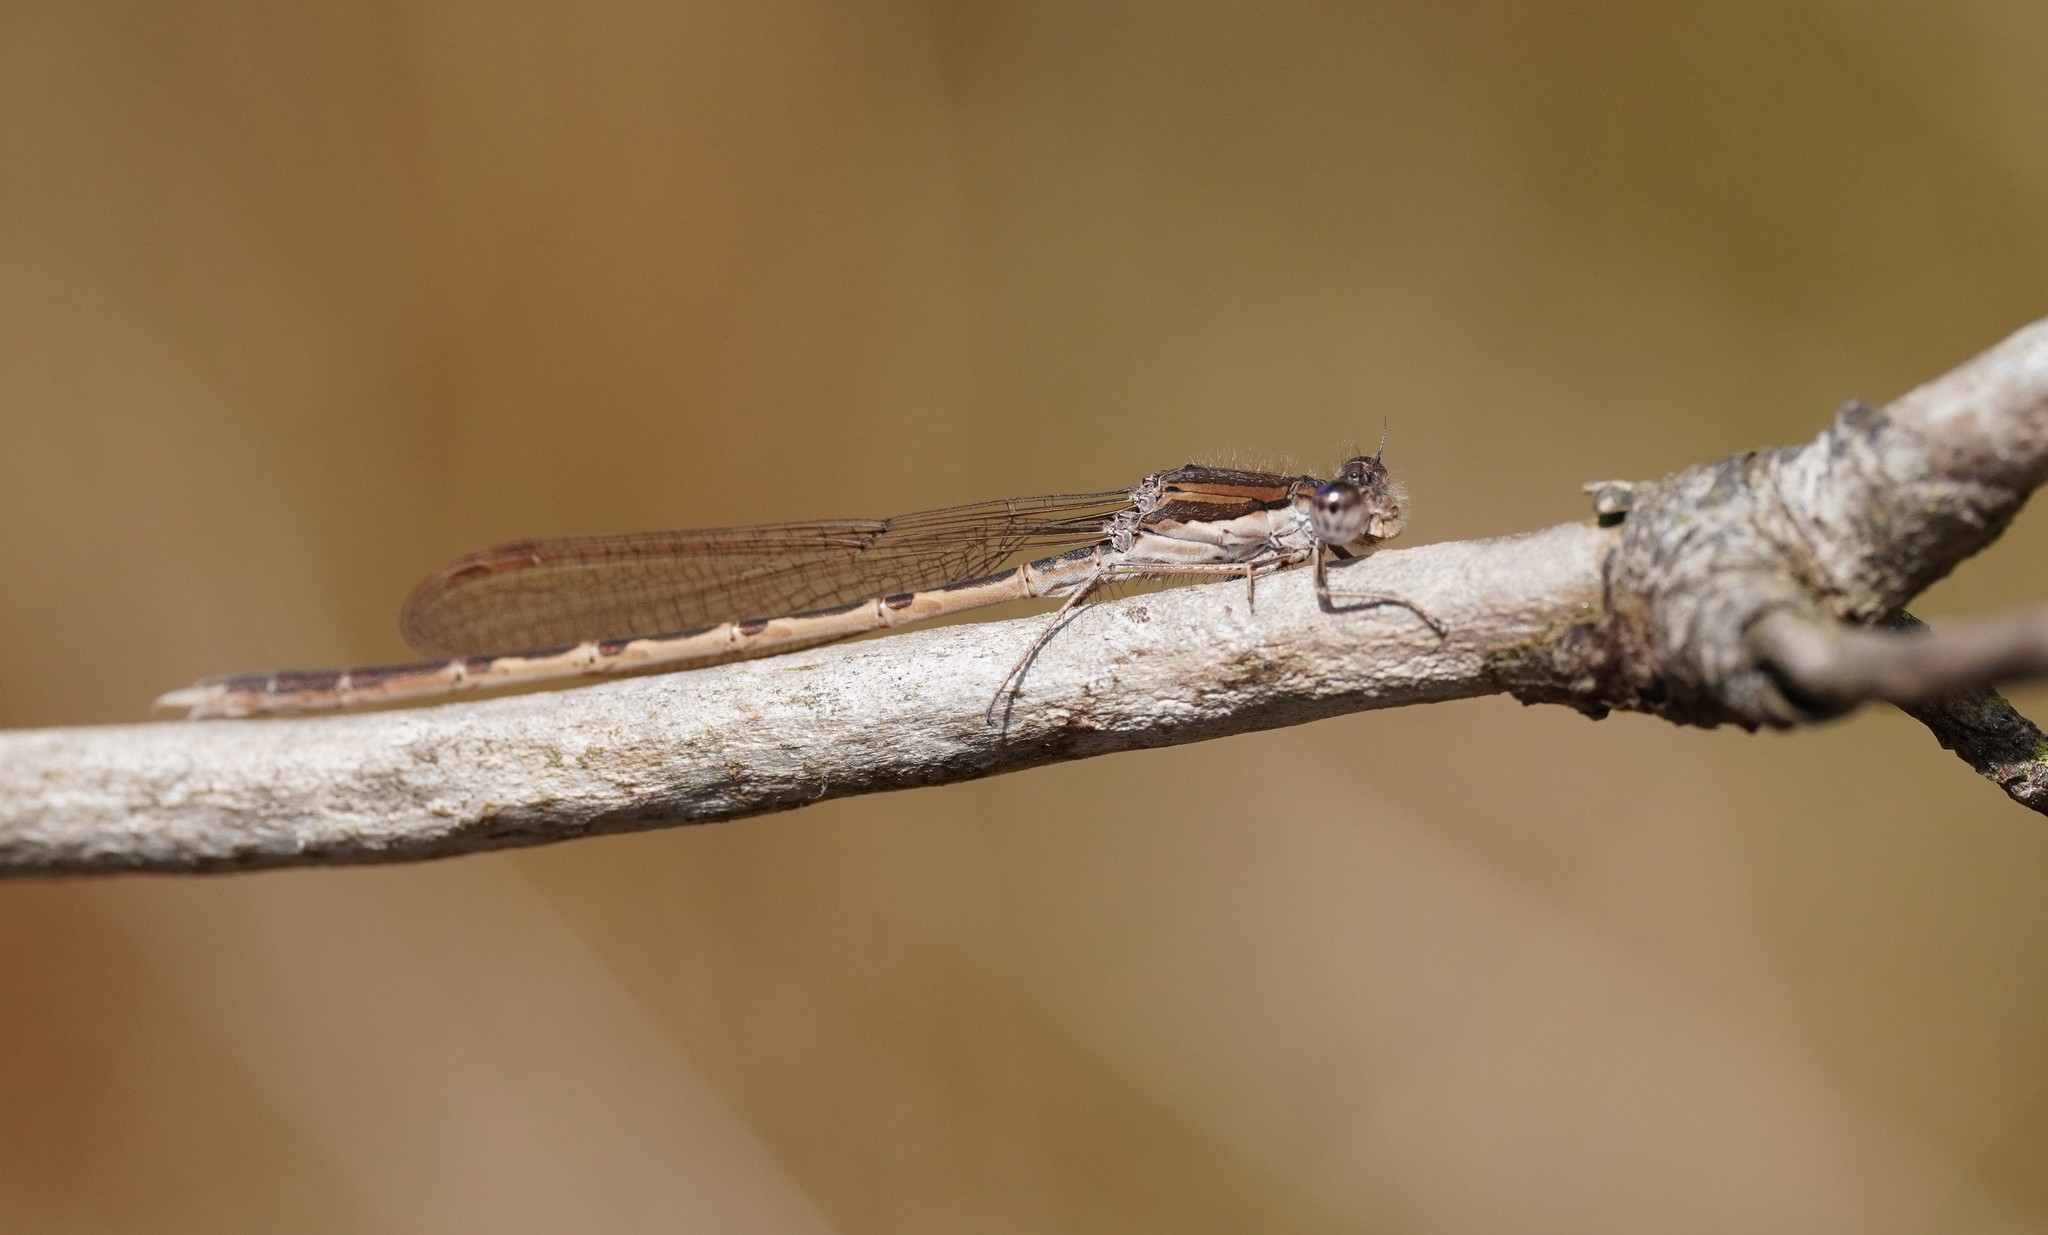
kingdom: Animalia
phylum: Arthropoda
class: Insecta
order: Odonata
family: Lestidae
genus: Sympecma
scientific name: Sympecma fusca
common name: Common winter damsel
